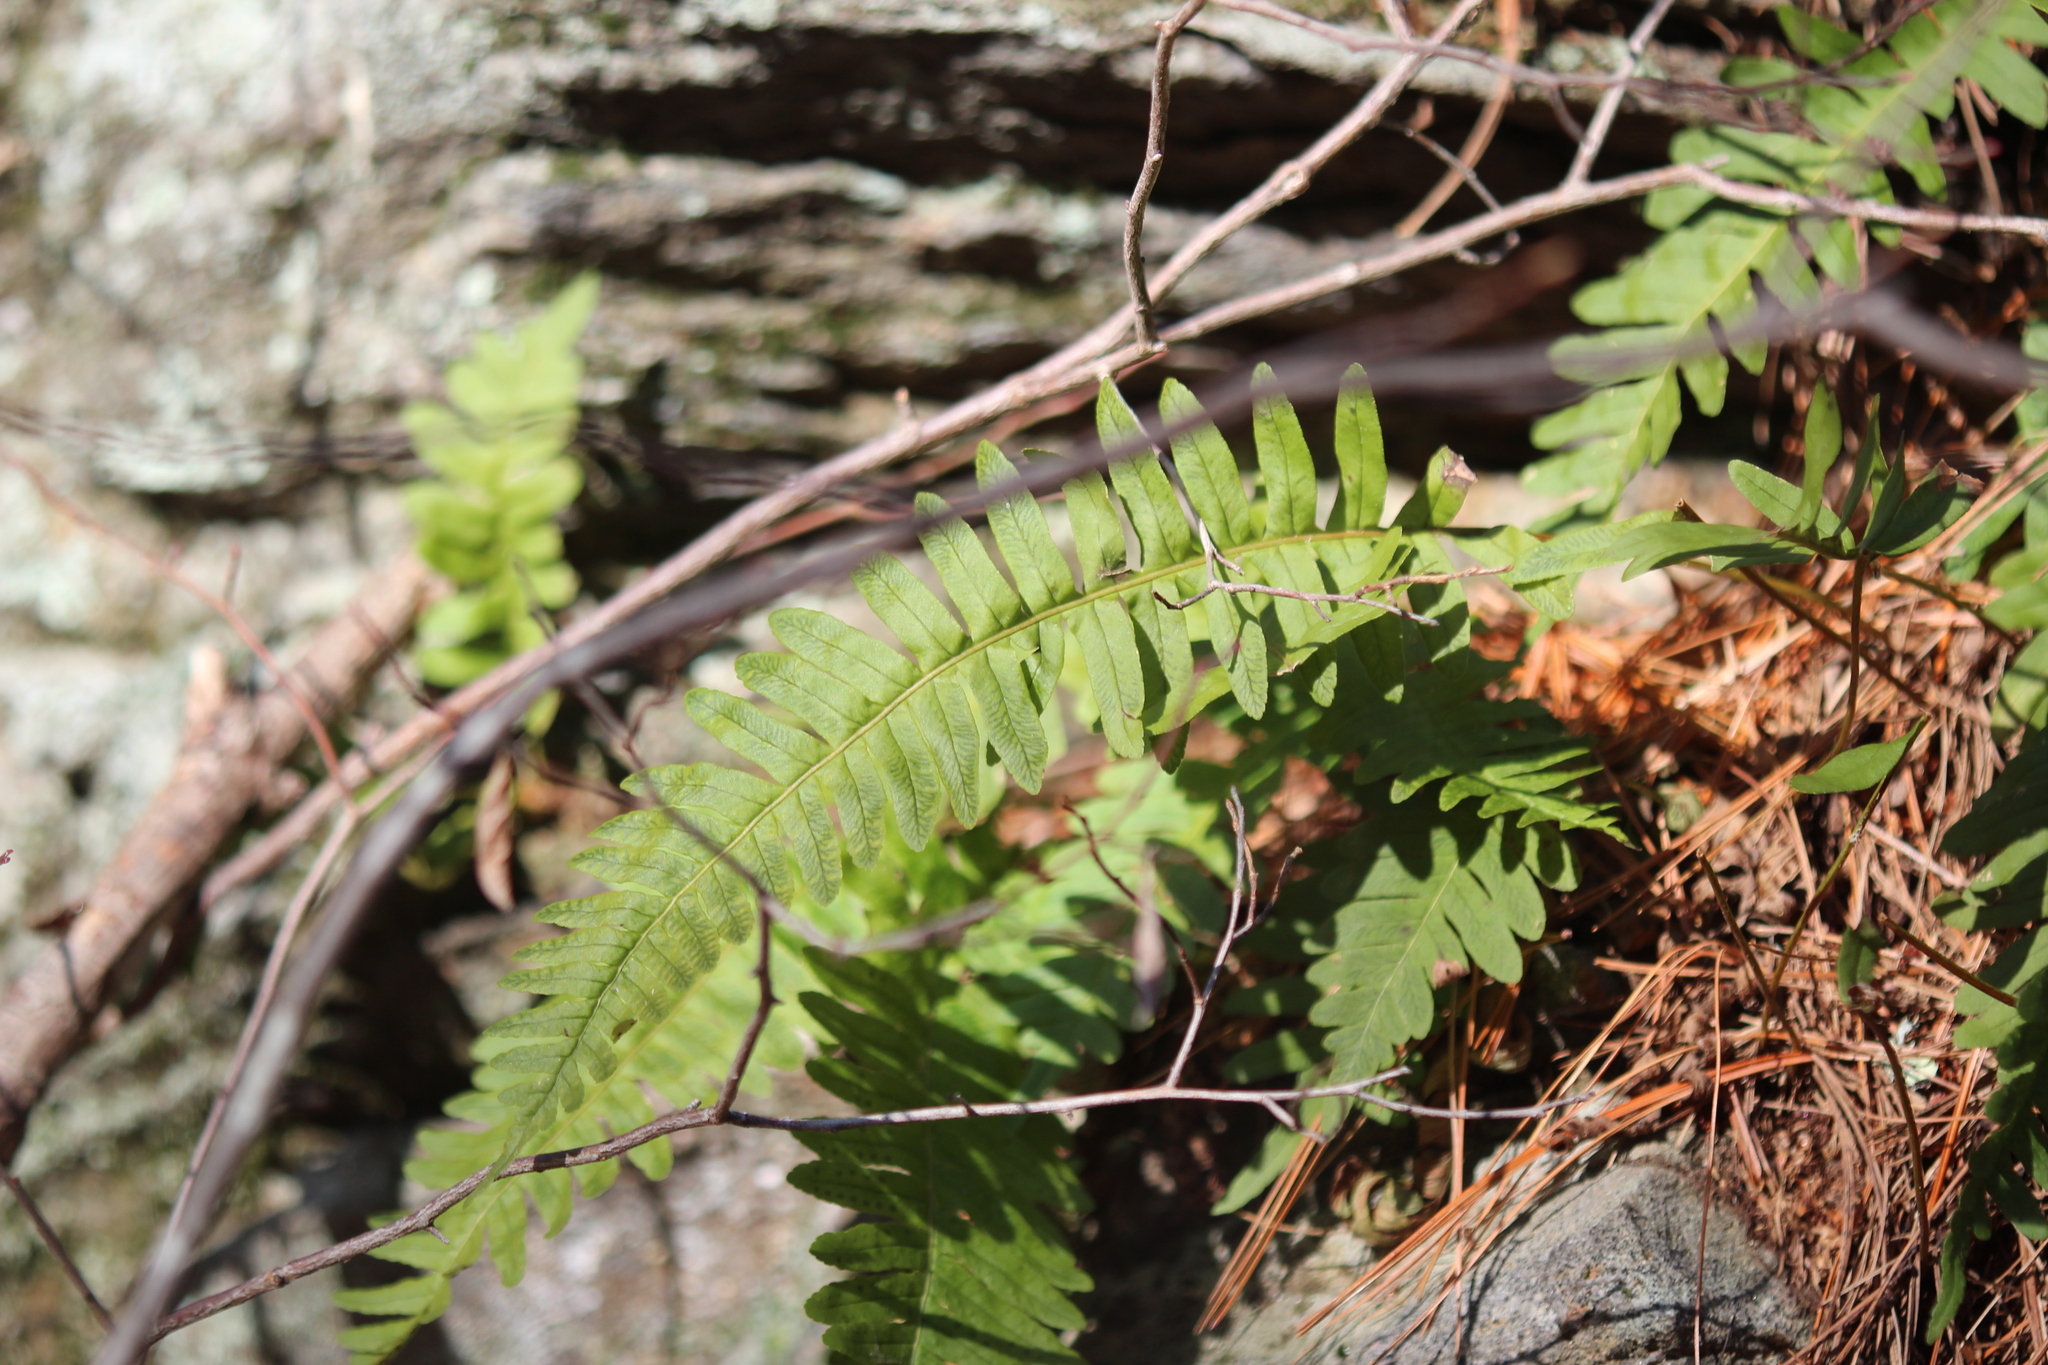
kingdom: Plantae
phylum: Tracheophyta
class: Polypodiopsida
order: Polypodiales
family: Polypodiaceae
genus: Polypodium
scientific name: Polypodium virginianum
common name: American wall fern
